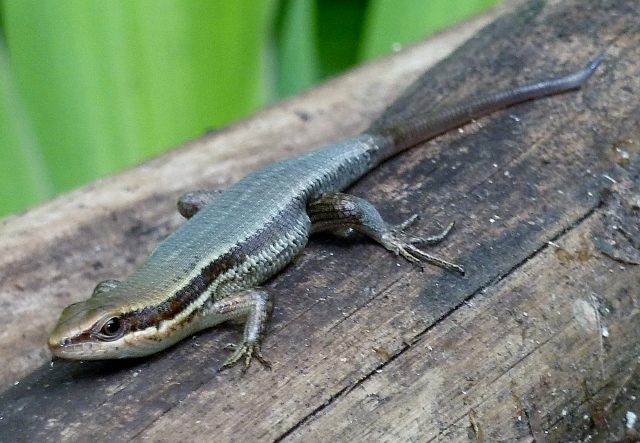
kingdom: Animalia
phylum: Chordata
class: Squamata
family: Scincidae
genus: Eutropis
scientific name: Eutropis indeprensa
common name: Brown's mabuya
